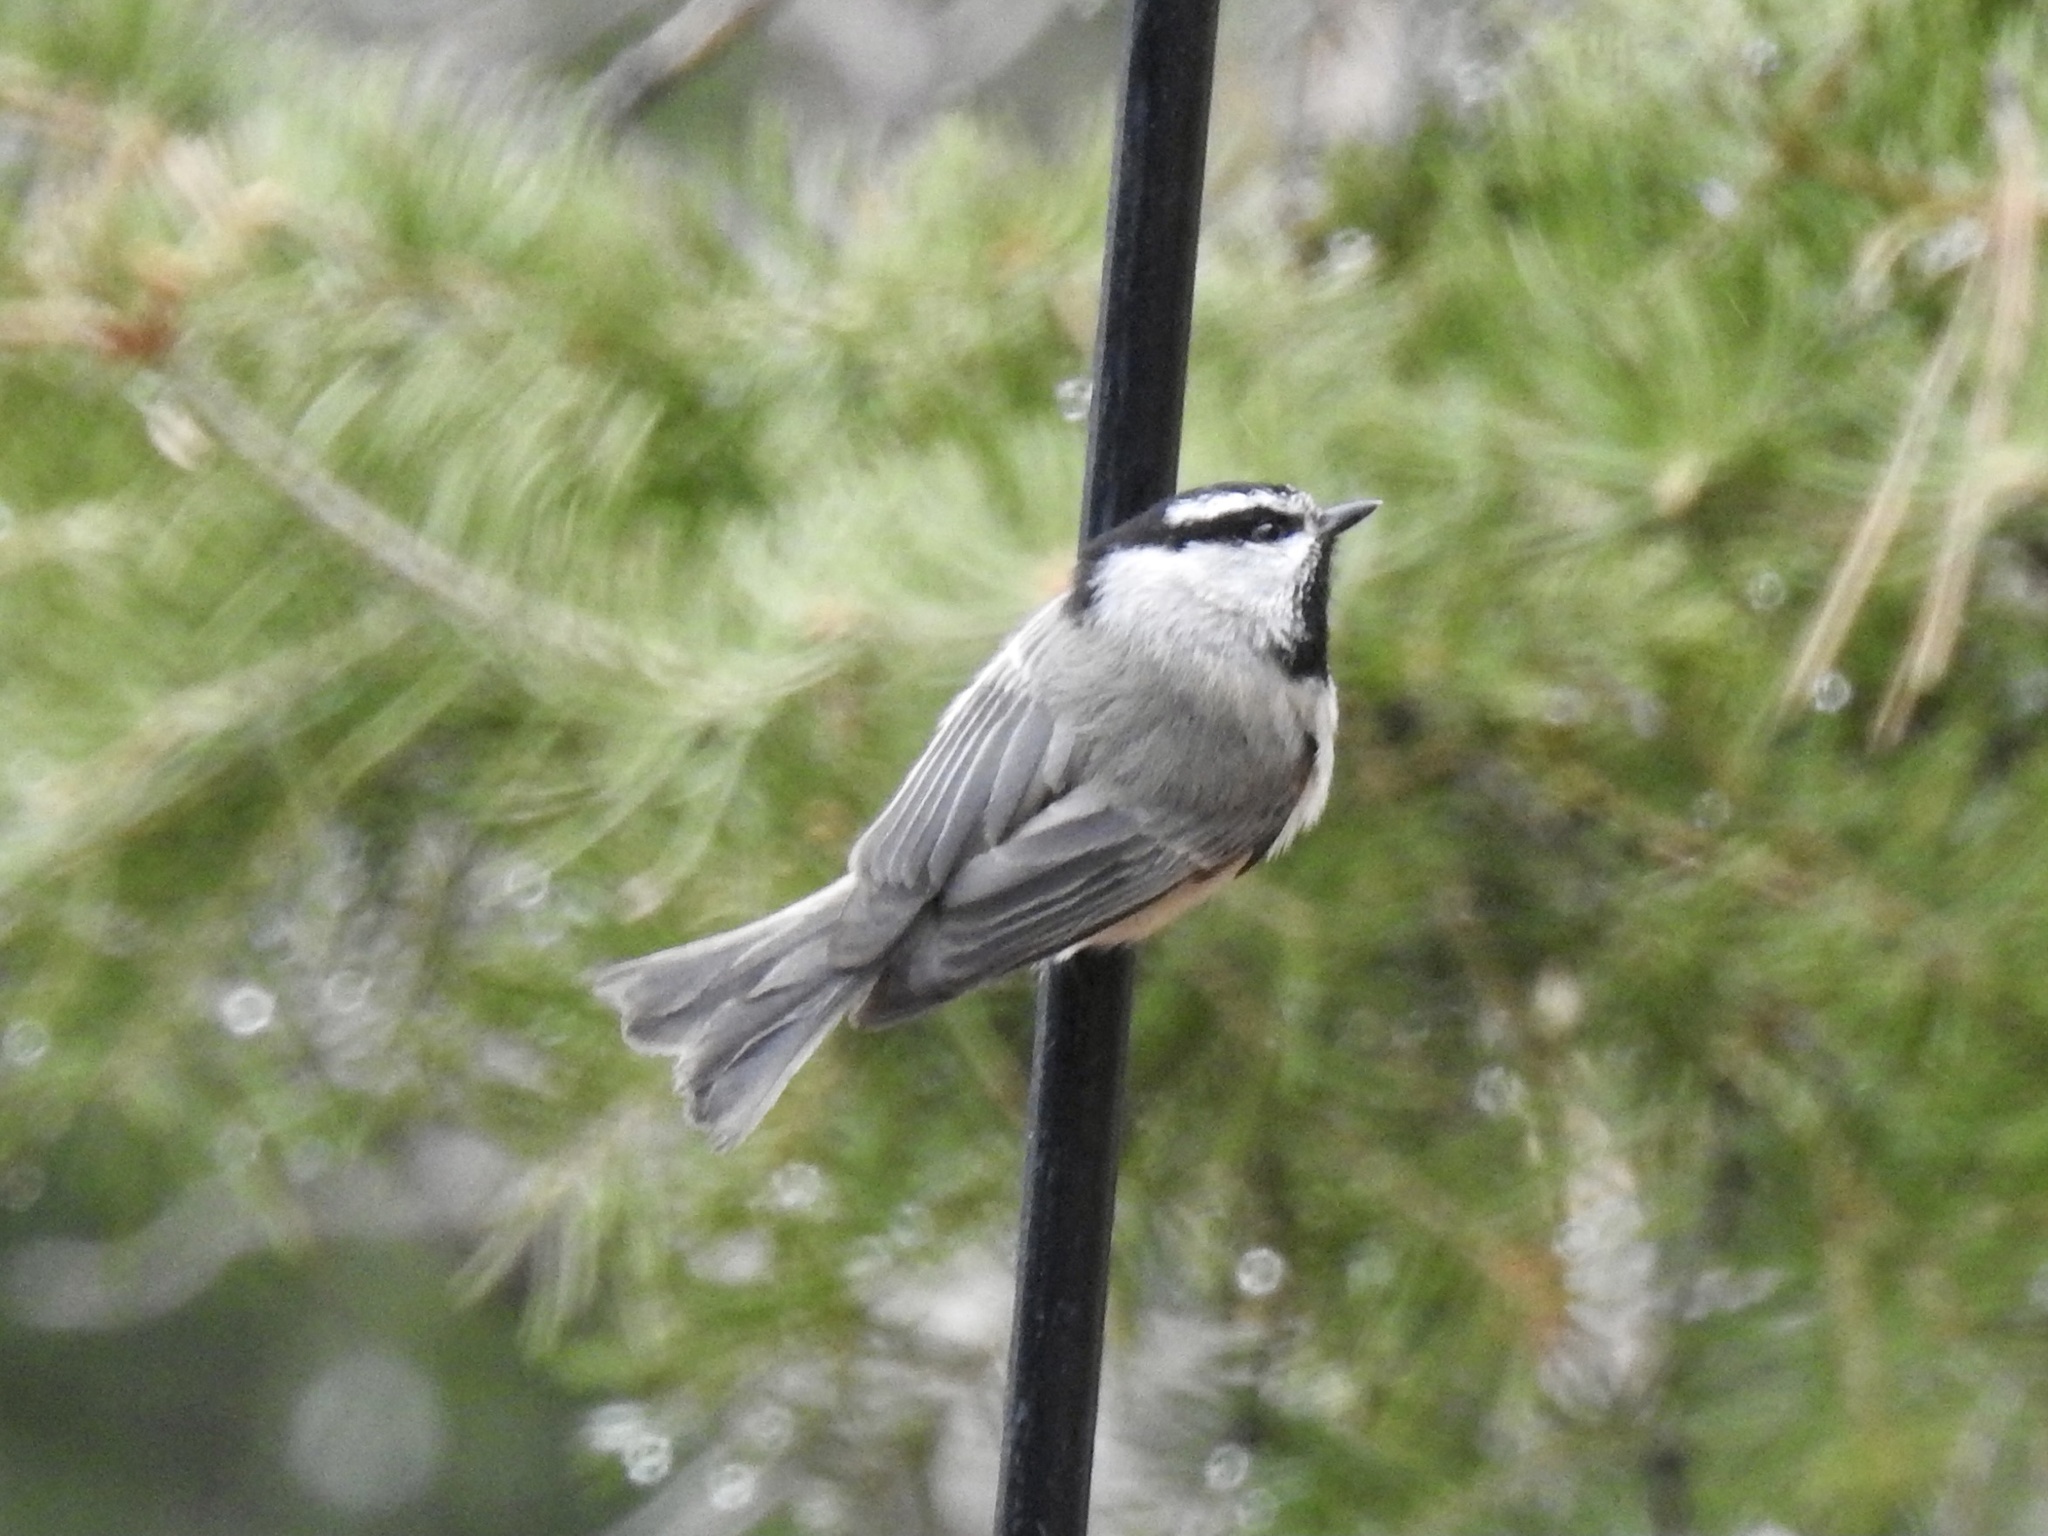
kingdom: Animalia
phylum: Chordata
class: Aves
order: Passeriformes
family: Paridae
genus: Poecile
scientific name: Poecile gambeli
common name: Mountain chickadee
